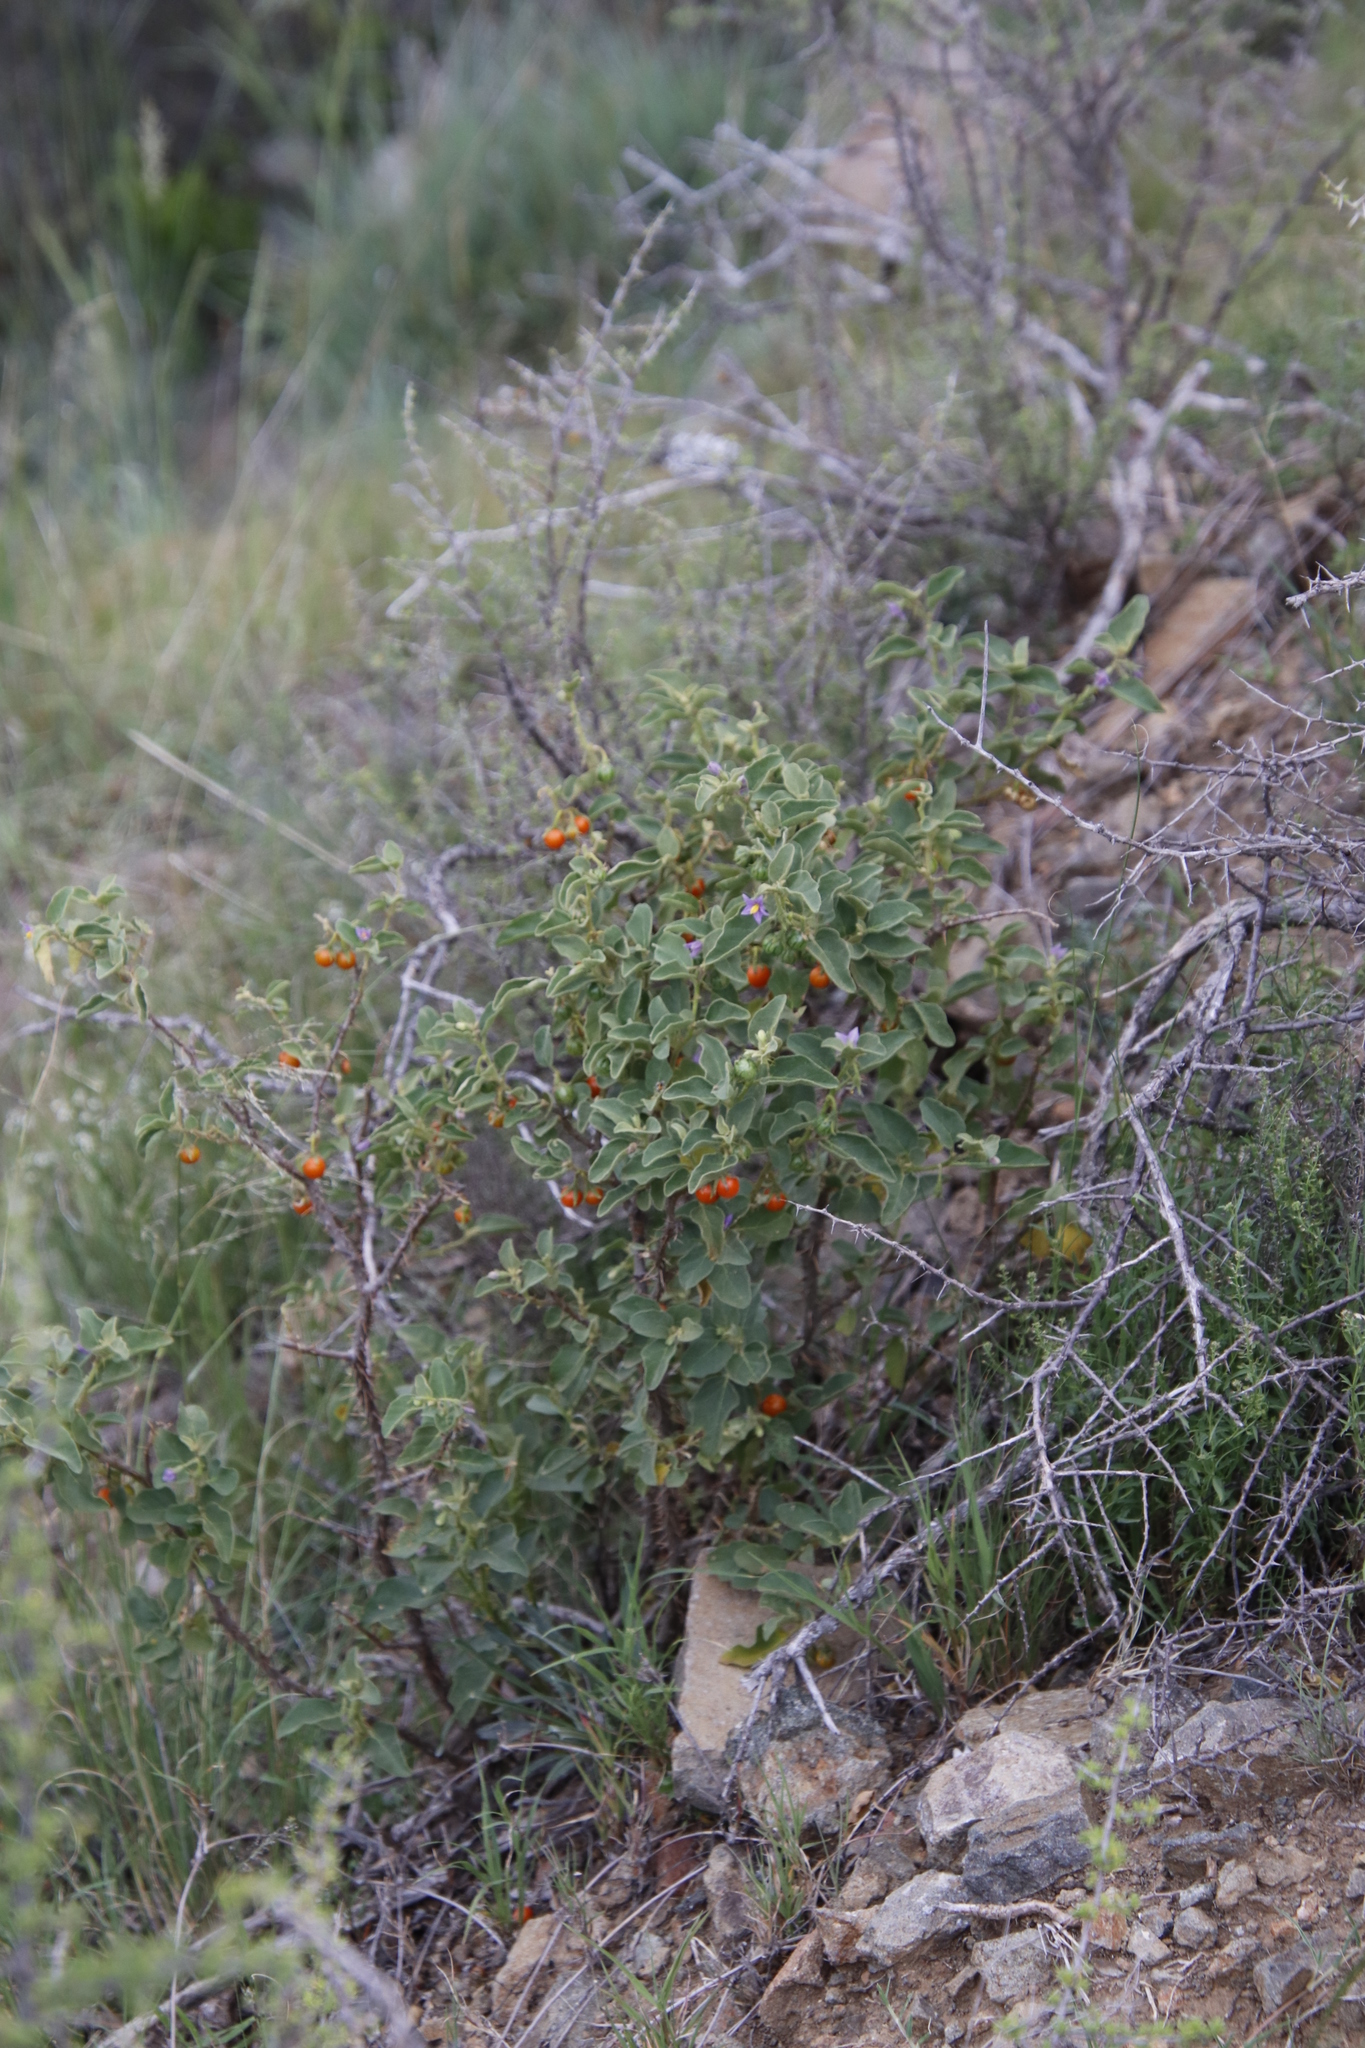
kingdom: Plantae
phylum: Tracheophyta
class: Magnoliopsida
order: Solanales
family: Solanaceae
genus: Solanum
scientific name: Solanum tomentosum
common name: Wild aubergine
